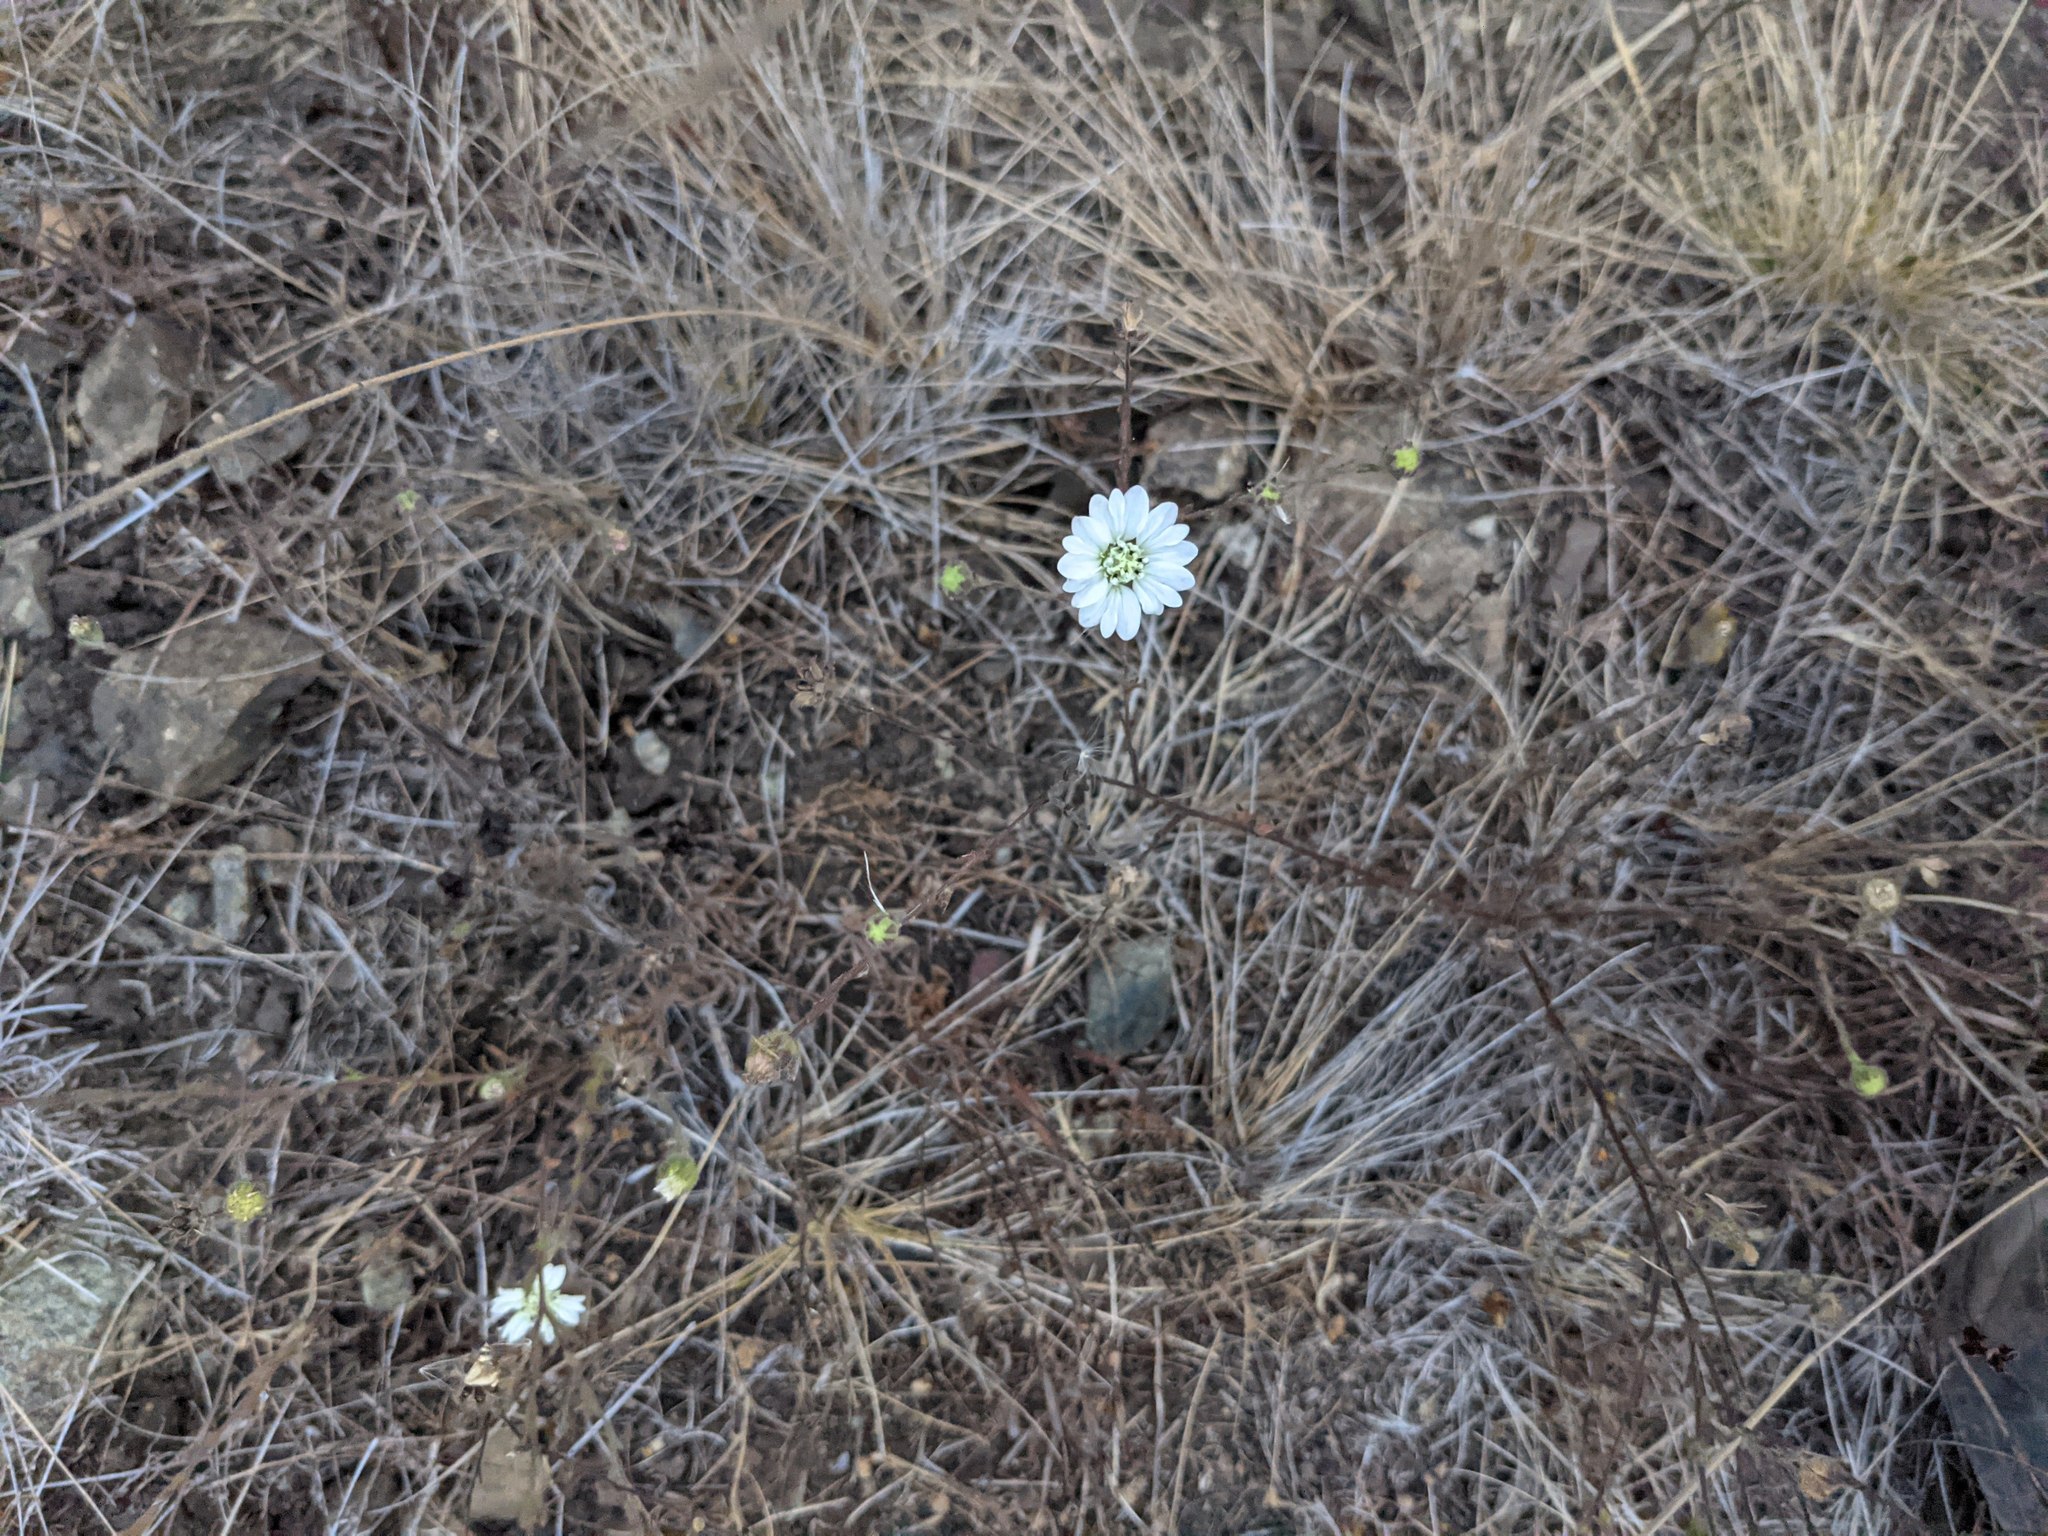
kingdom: Plantae
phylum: Tracheophyta
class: Magnoliopsida
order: Asterales
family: Asteraceae
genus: Hemizonia
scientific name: Hemizonia congesta
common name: Hayfield tarweed
